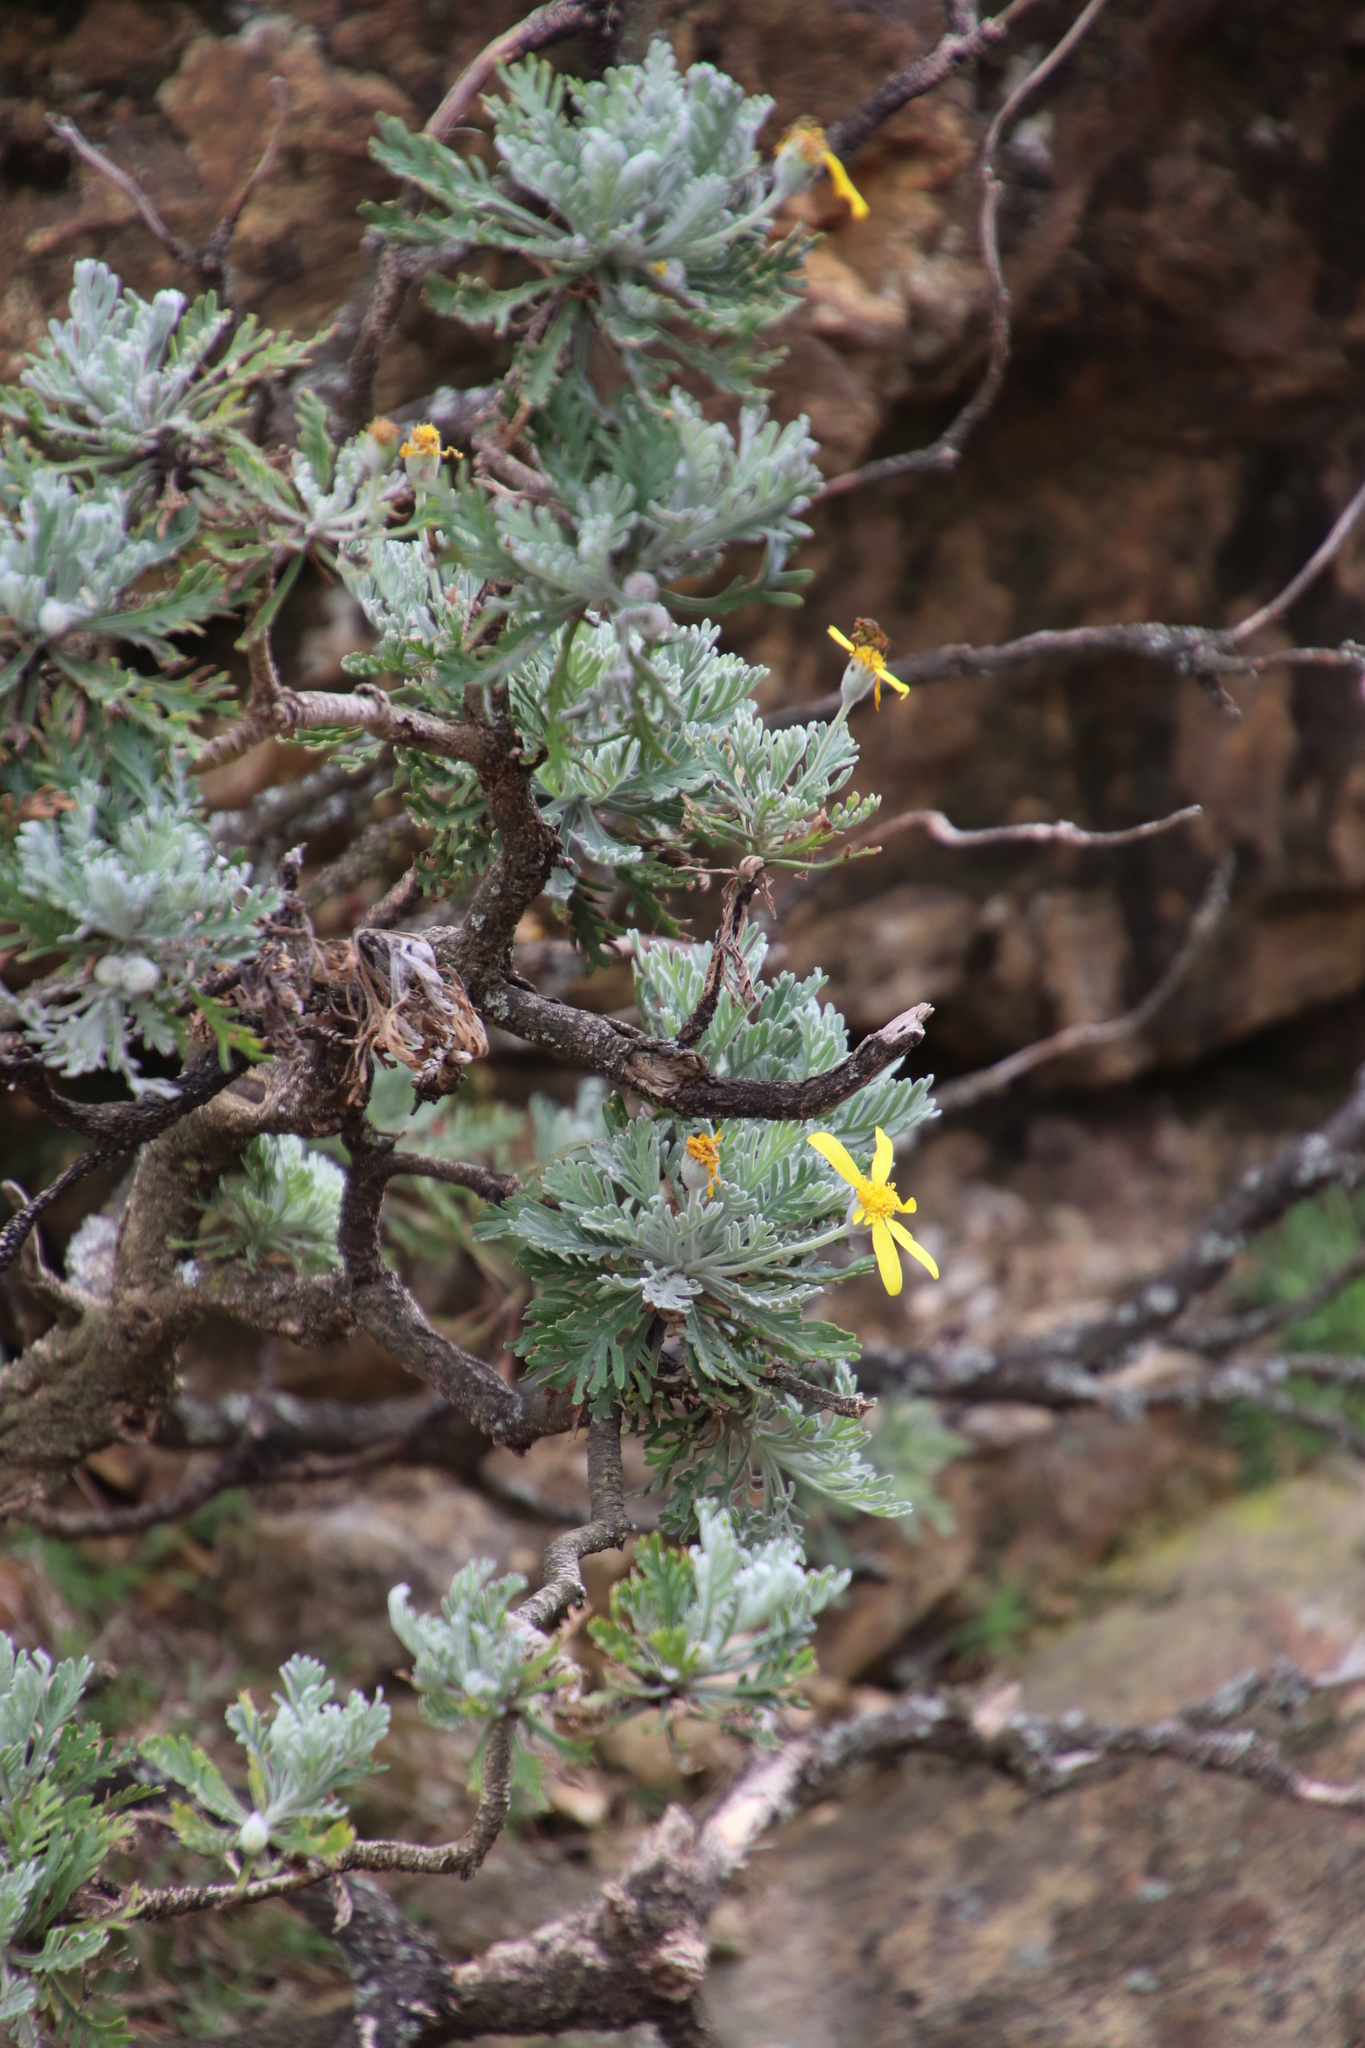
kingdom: Plantae
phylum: Tracheophyta
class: Magnoliopsida
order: Asterales
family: Asteraceae
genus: Euryops
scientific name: Euryops pectinatus
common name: Gray-leaf euryops
